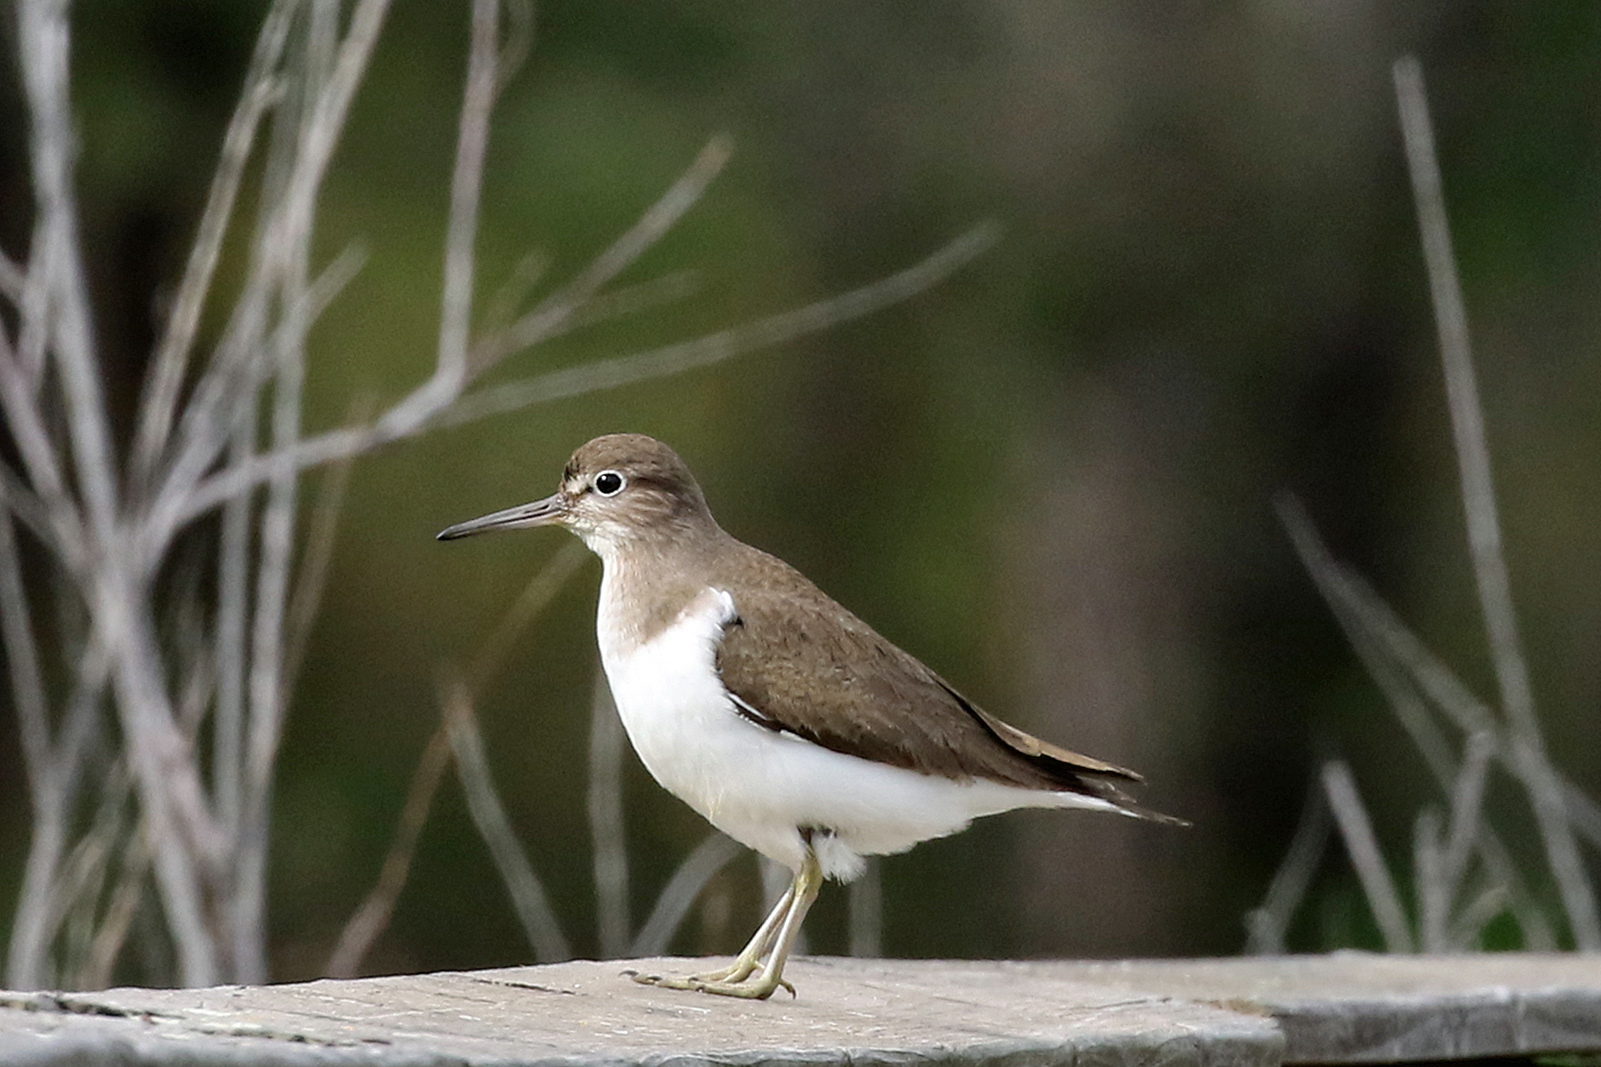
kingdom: Animalia
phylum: Chordata
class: Aves
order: Charadriiformes
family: Scolopacidae
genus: Actitis
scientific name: Actitis hypoleucos
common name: Common sandpiper
